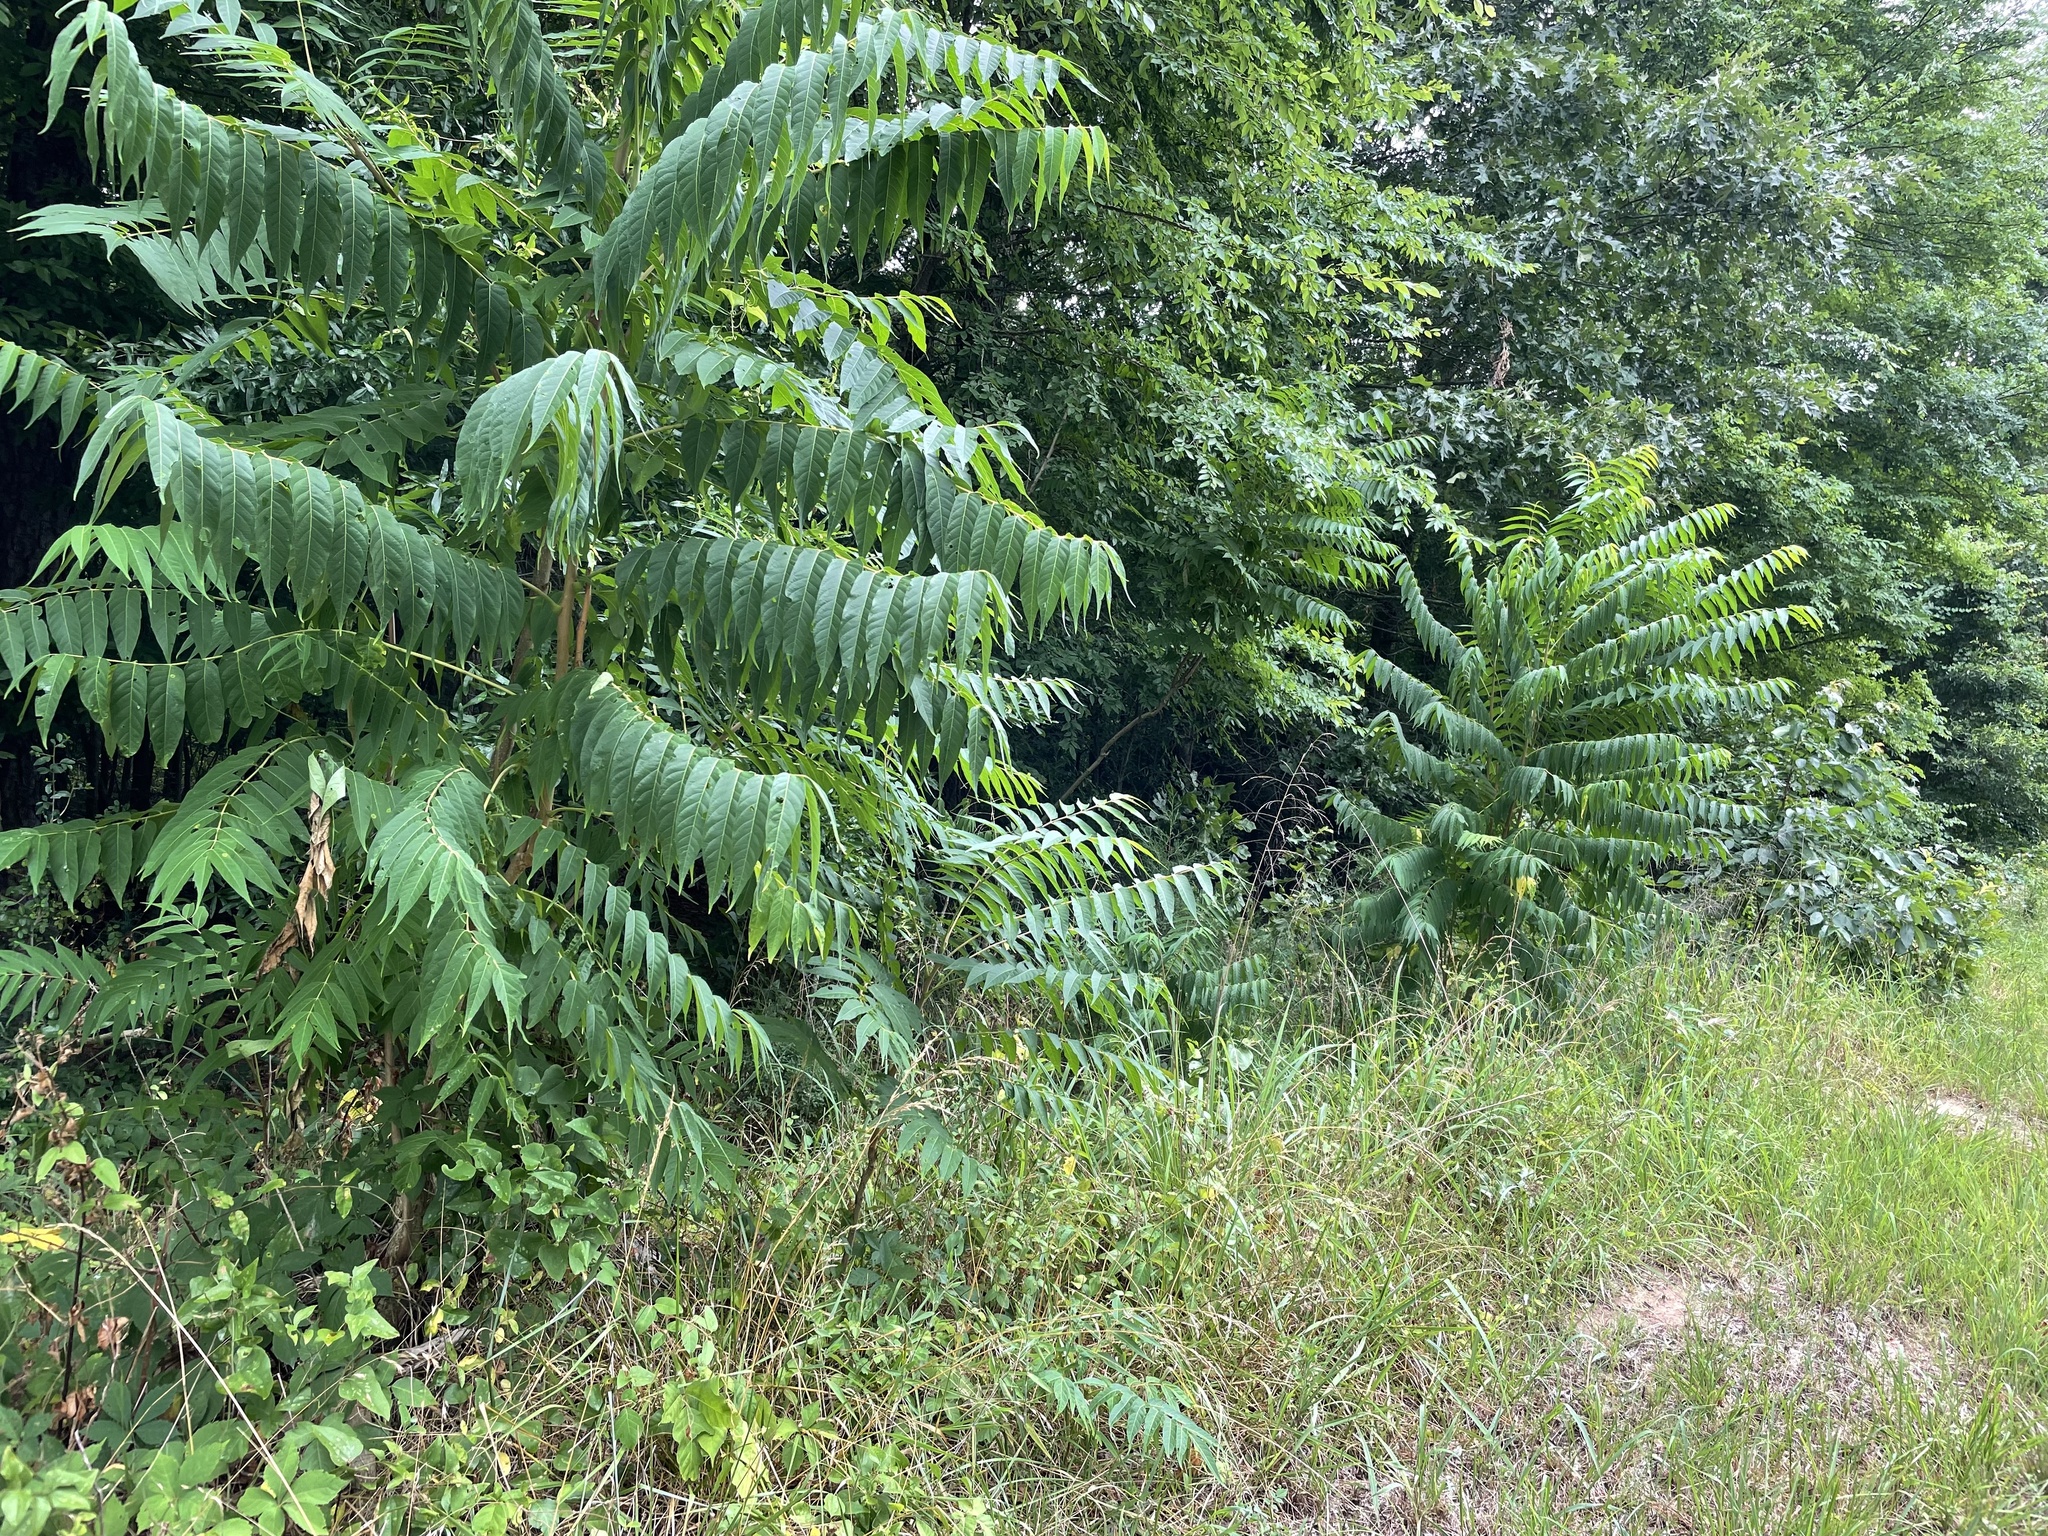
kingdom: Plantae
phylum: Tracheophyta
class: Magnoliopsida
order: Sapindales
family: Simaroubaceae
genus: Ailanthus
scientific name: Ailanthus altissima
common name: Tree-of-heaven
